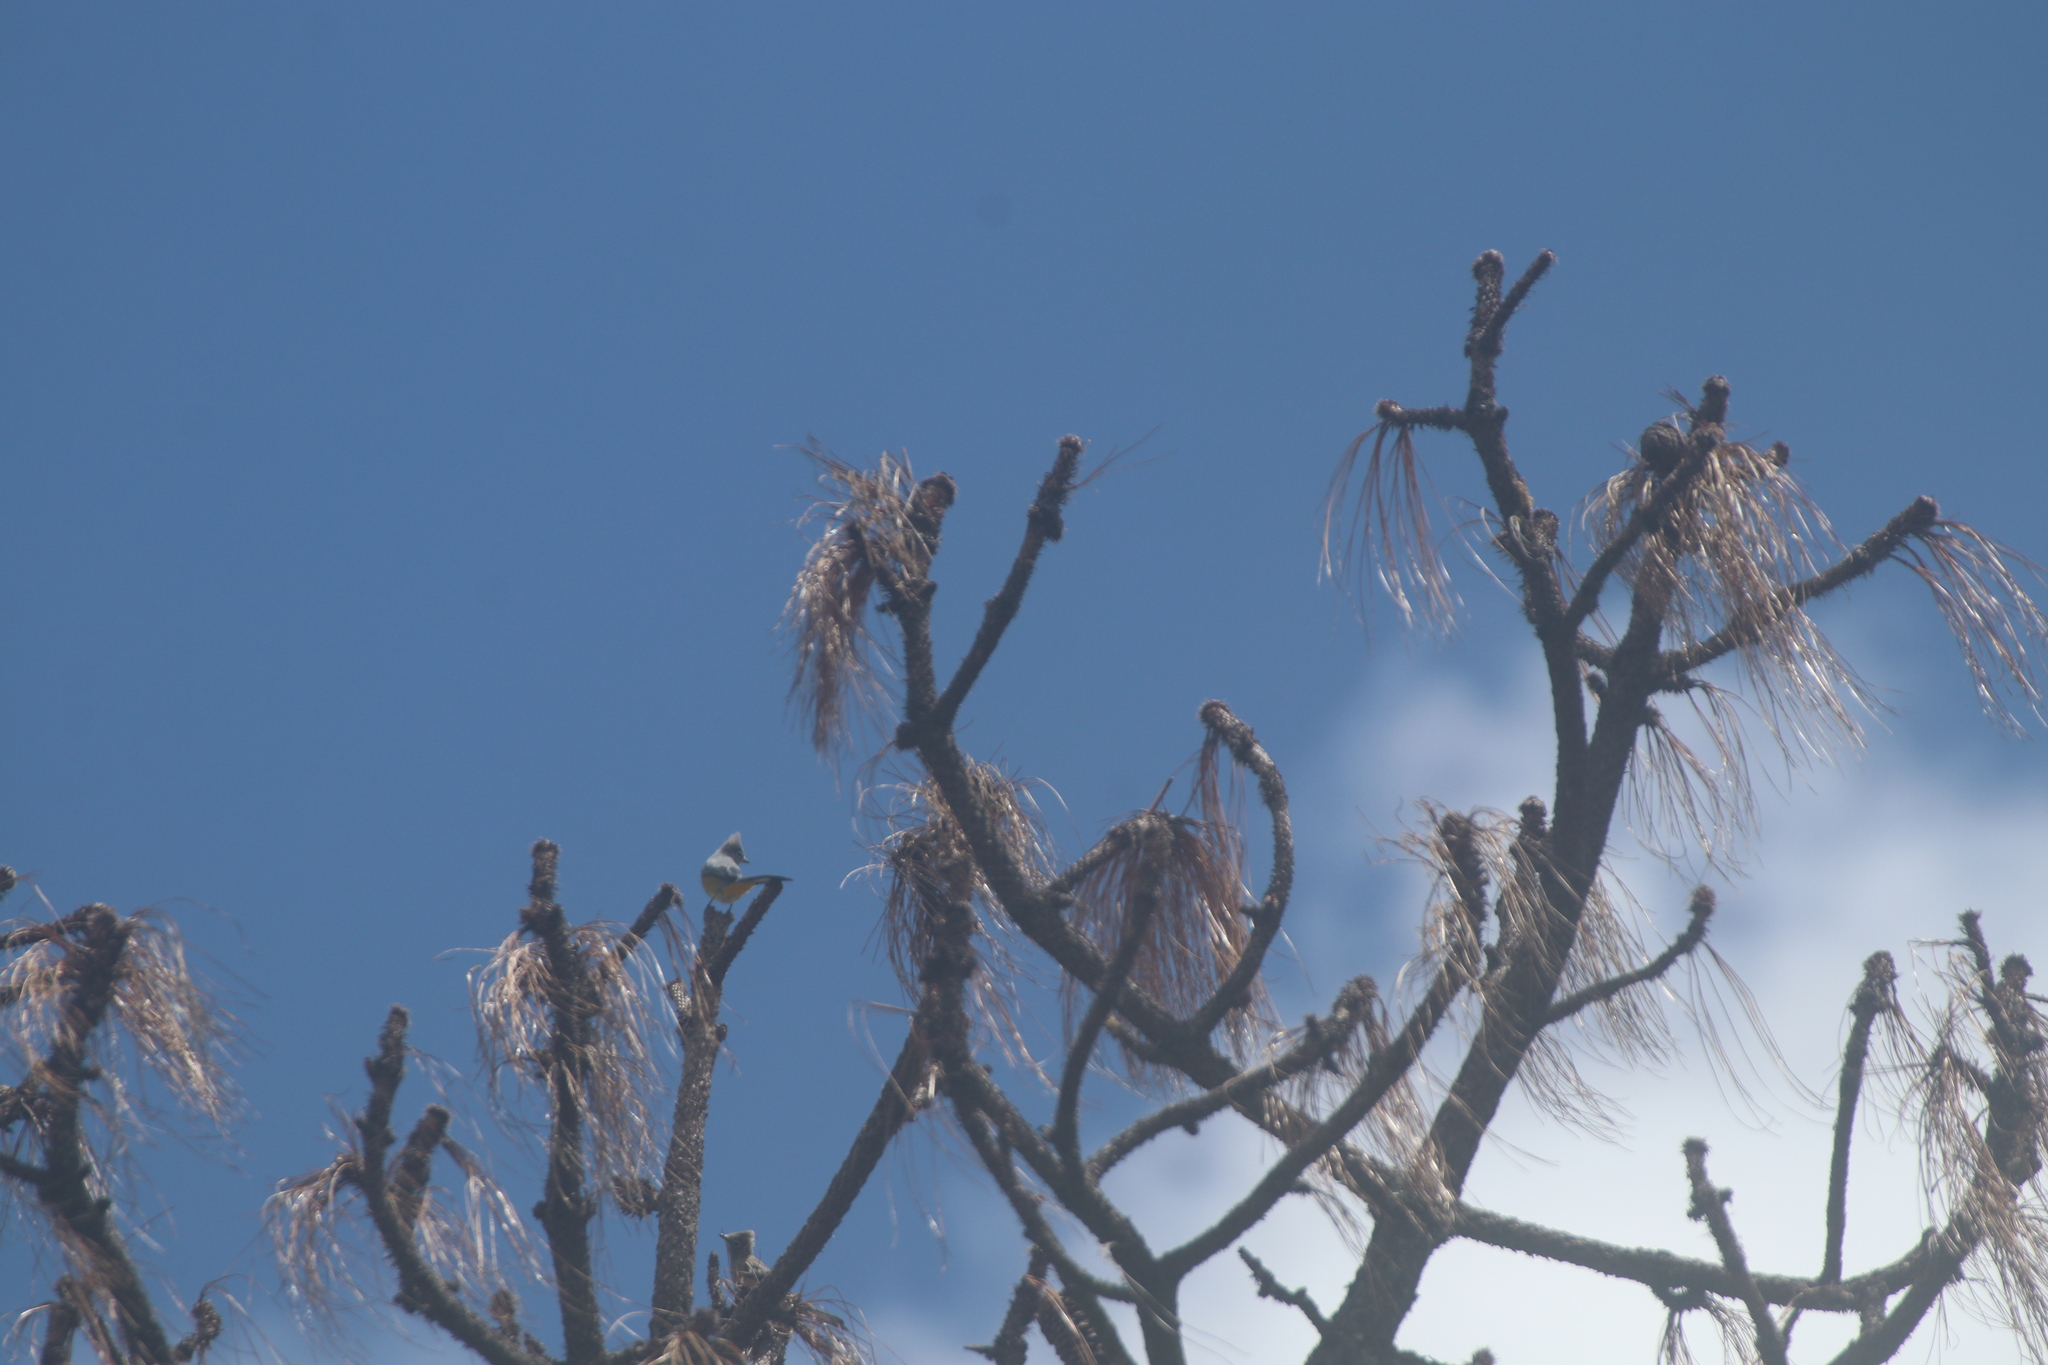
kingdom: Animalia
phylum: Chordata
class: Aves
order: Passeriformes
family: Ptilogonatidae
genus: Ptilogonys
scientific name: Ptilogonys cinereus
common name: Gray silky-flycatcher
